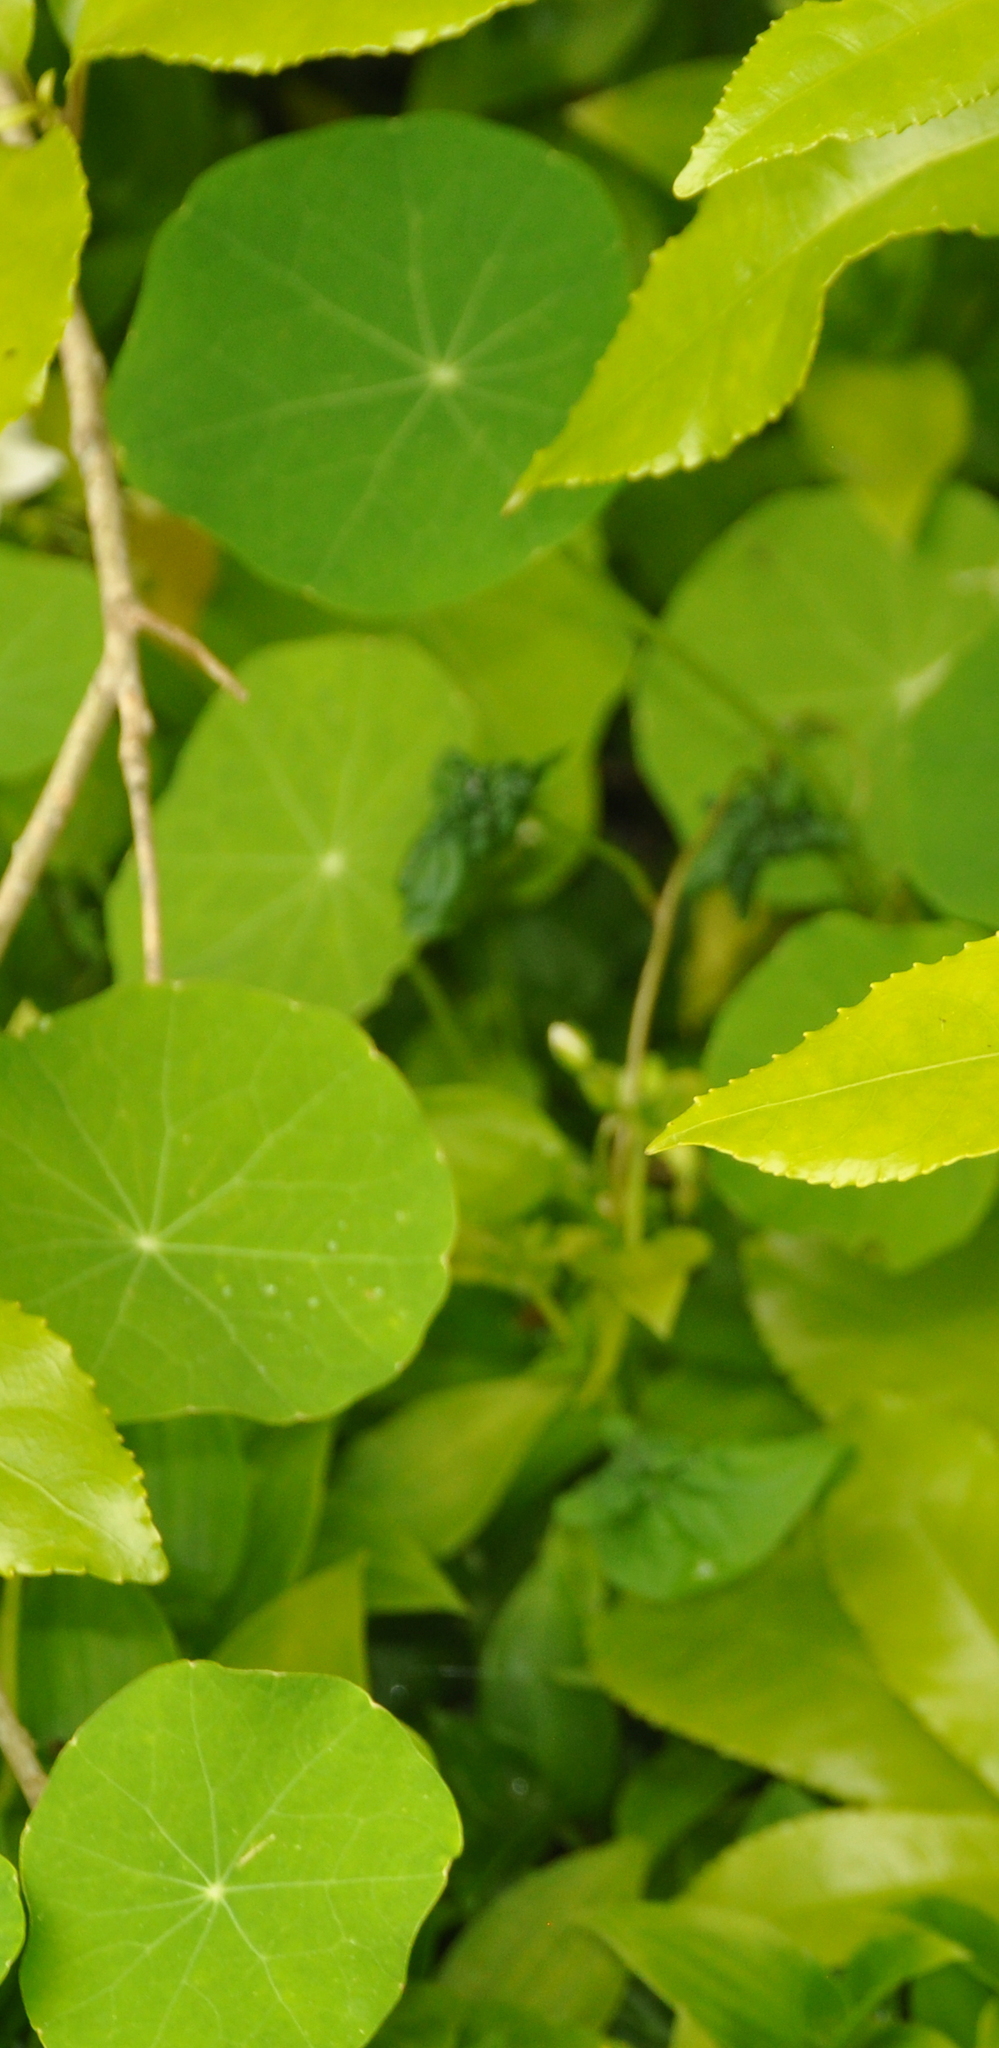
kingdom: Plantae
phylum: Tracheophyta
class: Magnoliopsida
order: Brassicales
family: Tropaeolaceae
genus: Tropaeolum
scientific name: Tropaeolum majus
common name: Nasturtium
